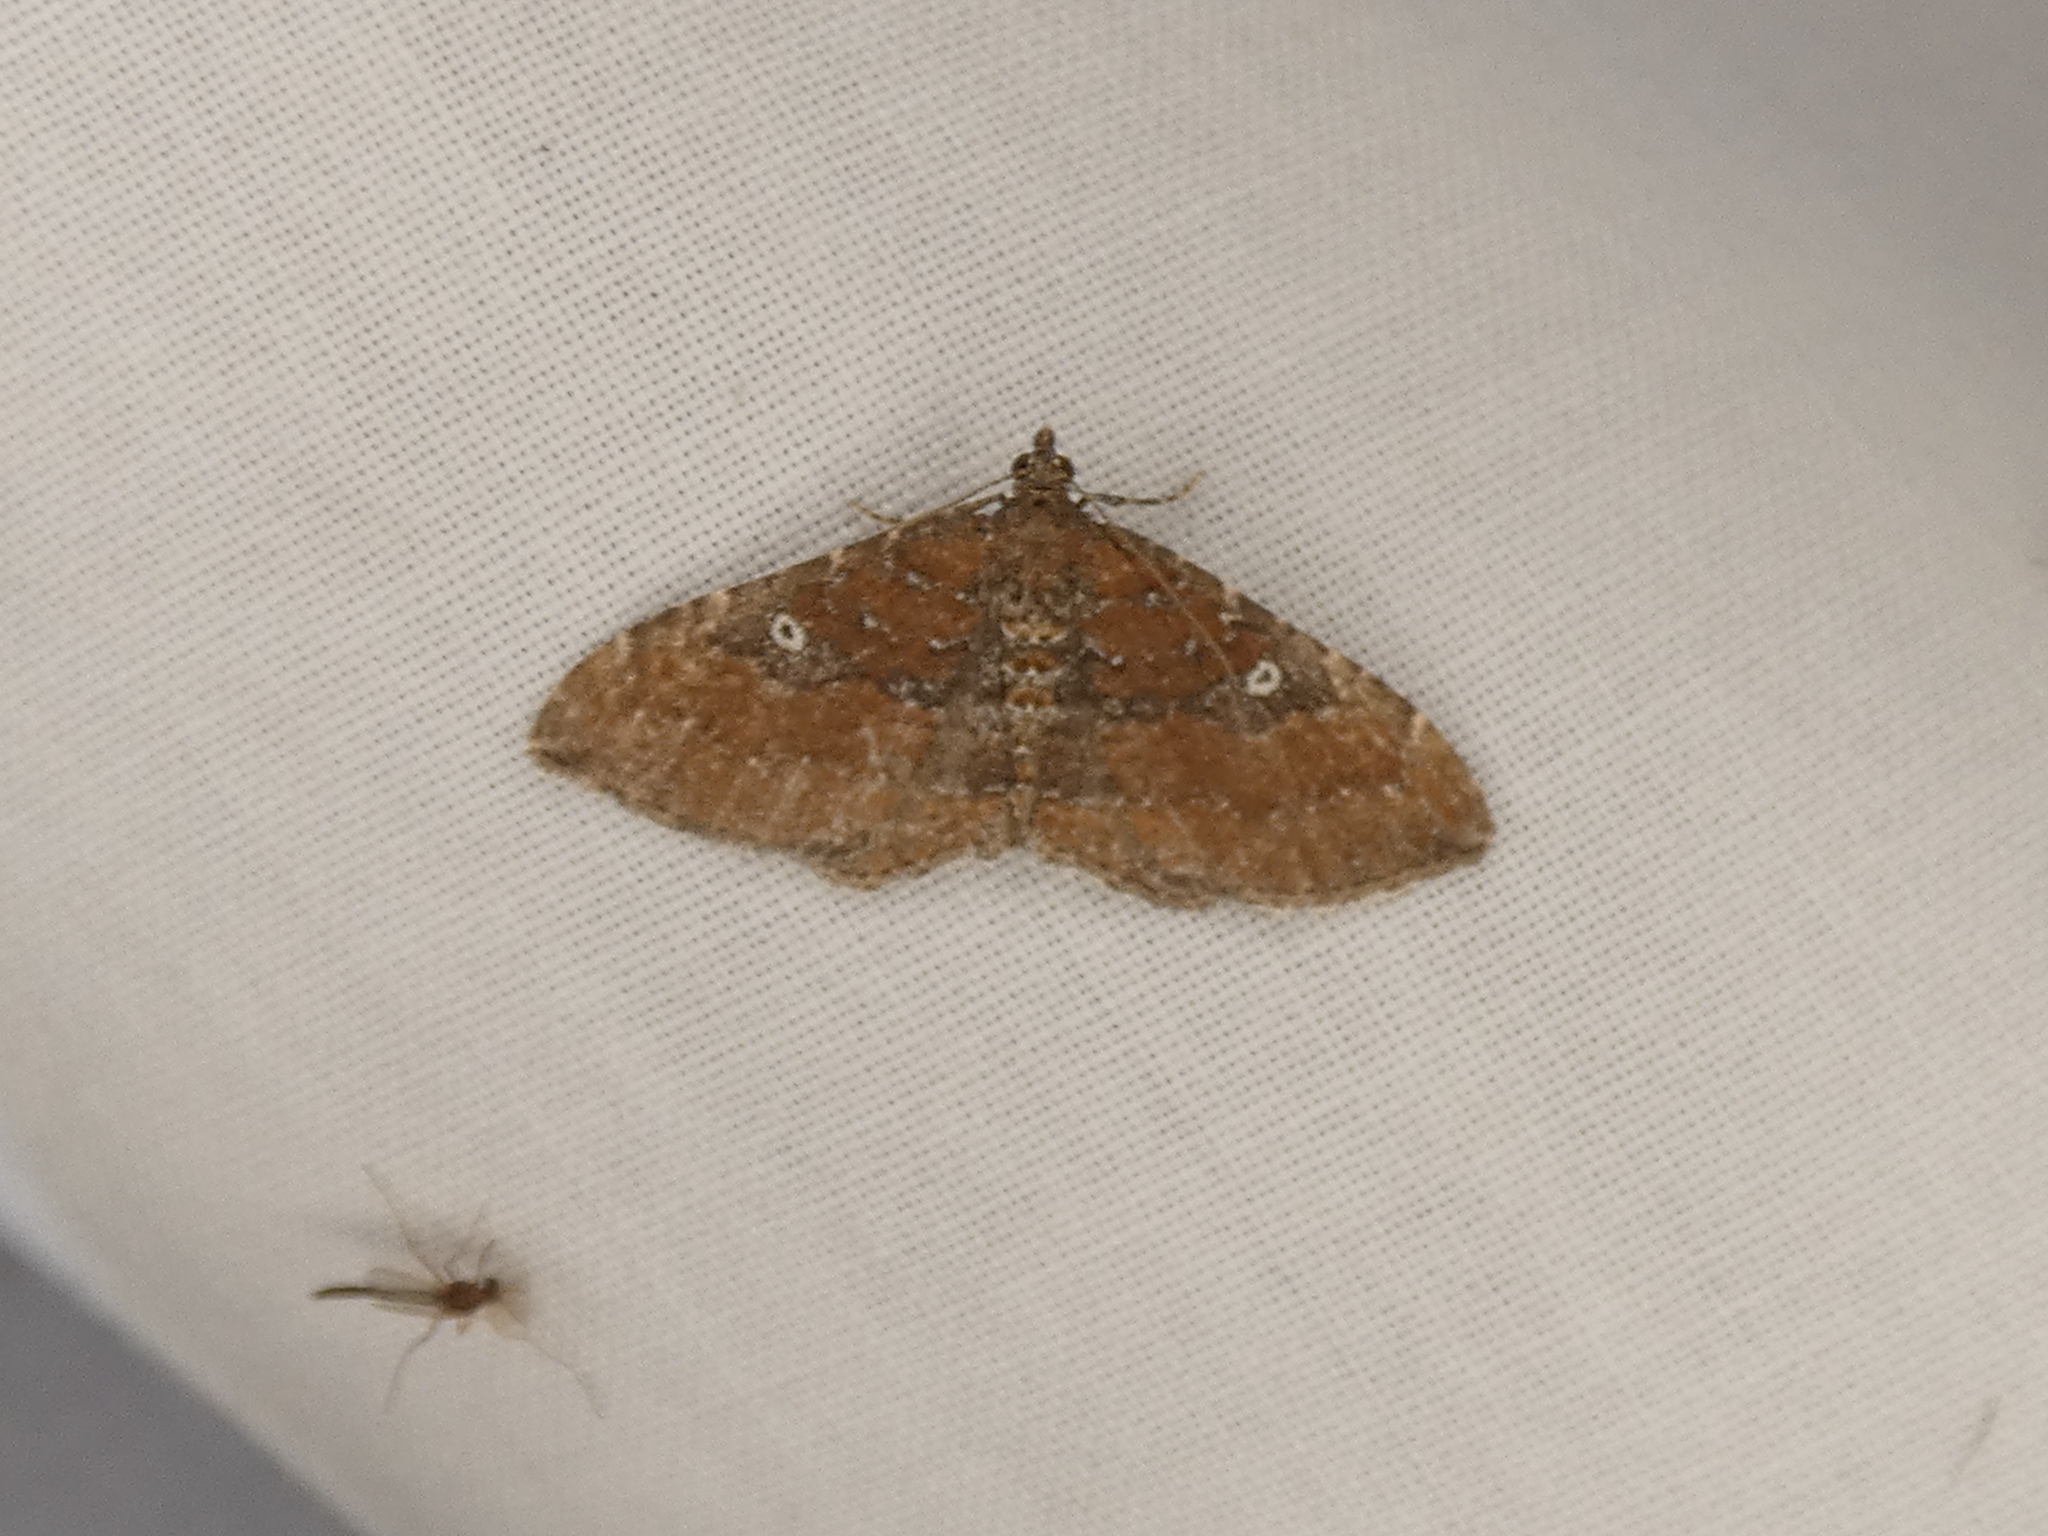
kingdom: Animalia
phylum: Arthropoda
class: Insecta
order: Lepidoptera
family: Geometridae
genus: Orthonama
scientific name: Orthonama obstipata
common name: The gem
